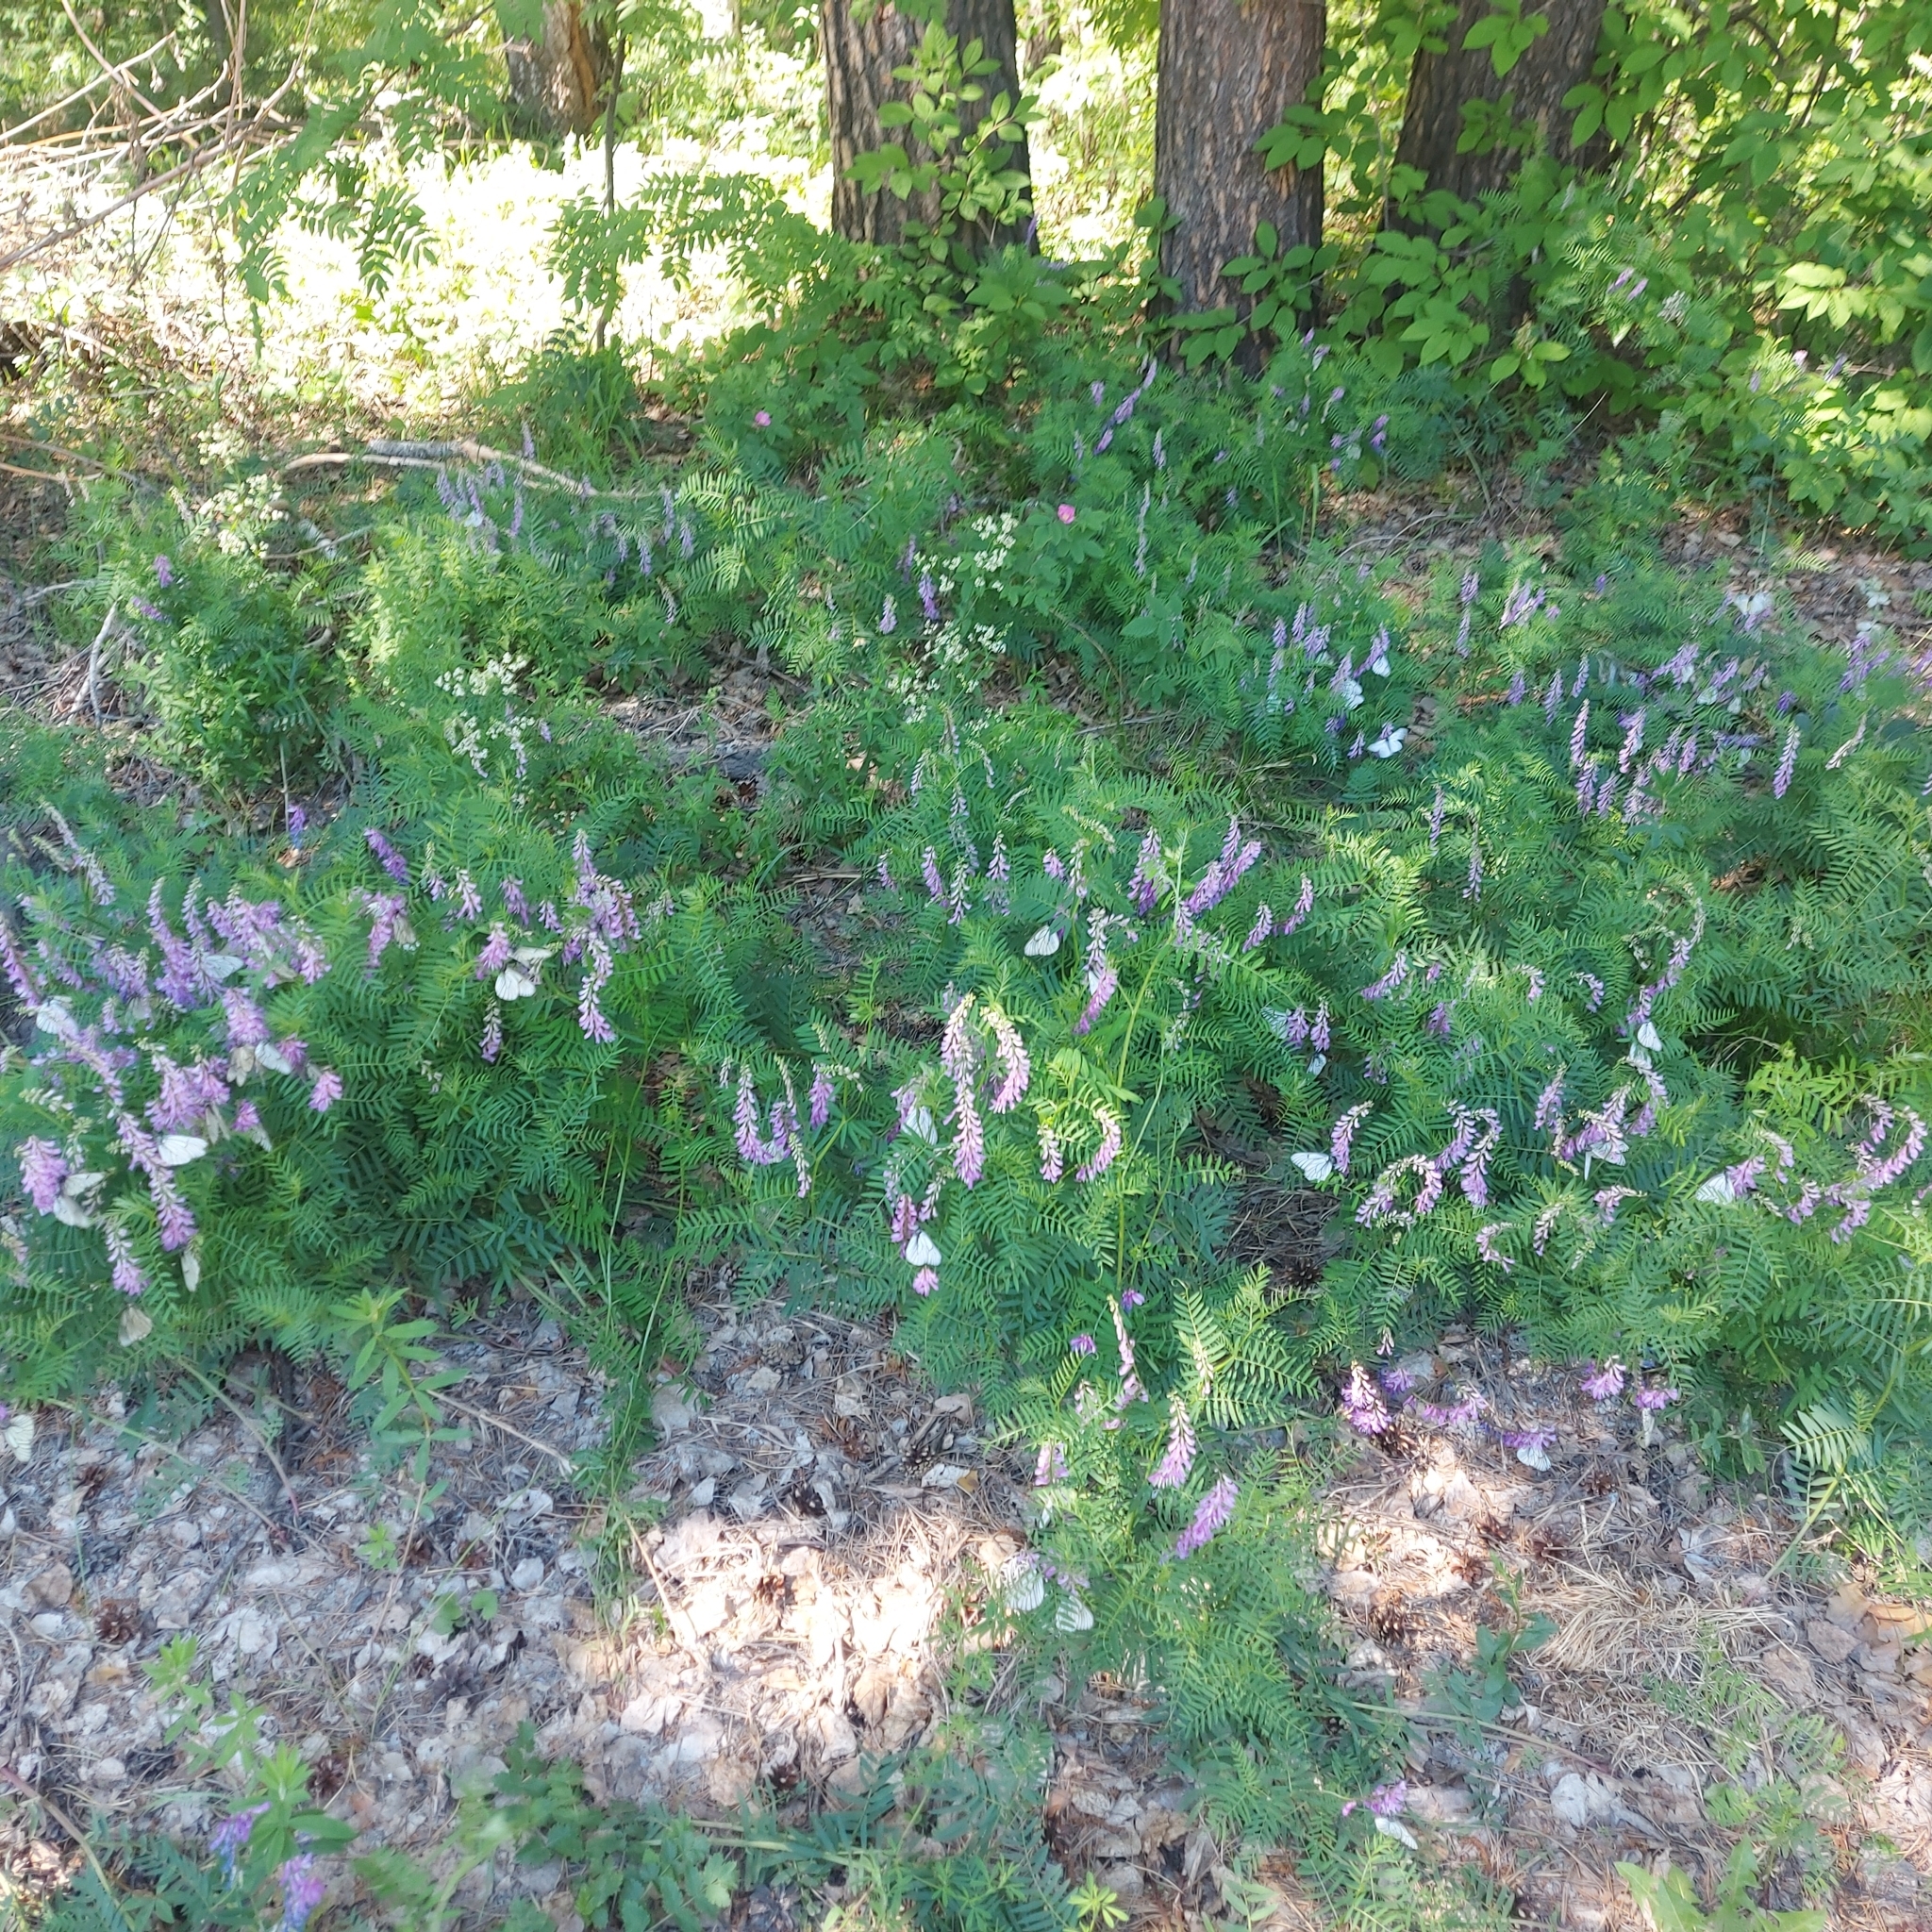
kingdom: Plantae
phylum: Tracheophyta
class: Magnoliopsida
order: Fabales
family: Fabaceae
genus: Vicia
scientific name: Vicia tenuifolia
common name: Fine-leaved vetch
